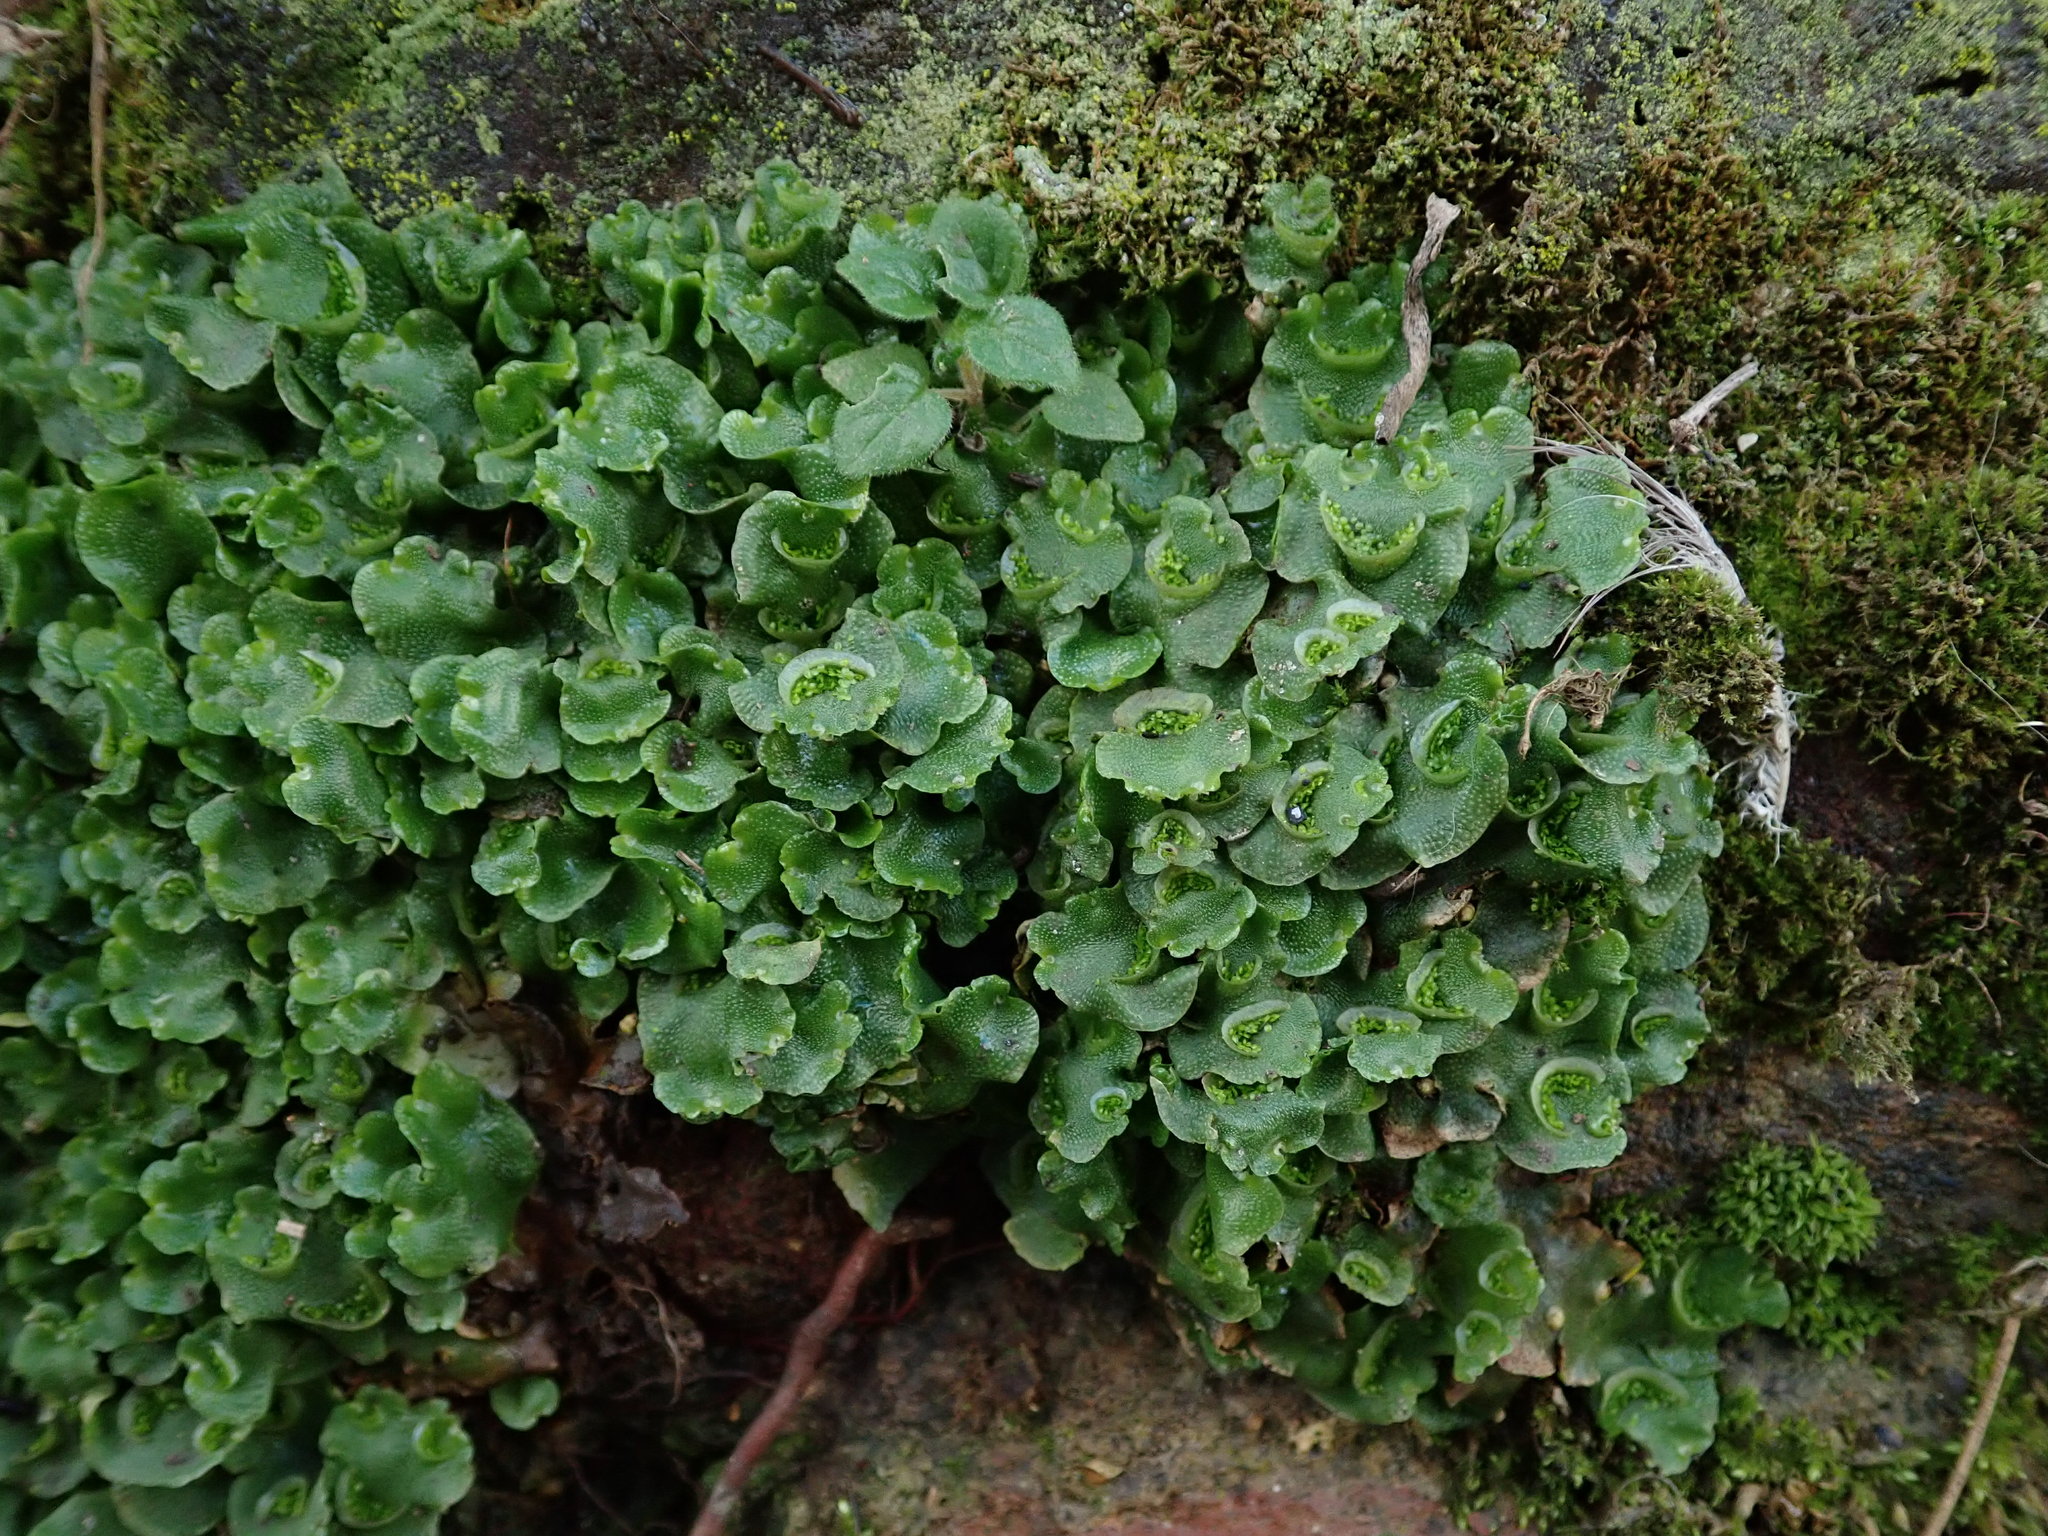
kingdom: Plantae
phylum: Marchantiophyta
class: Marchantiopsida
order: Lunulariales
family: Lunulariaceae
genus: Lunularia
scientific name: Lunularia cruciata
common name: Crescent-cup liverwort
